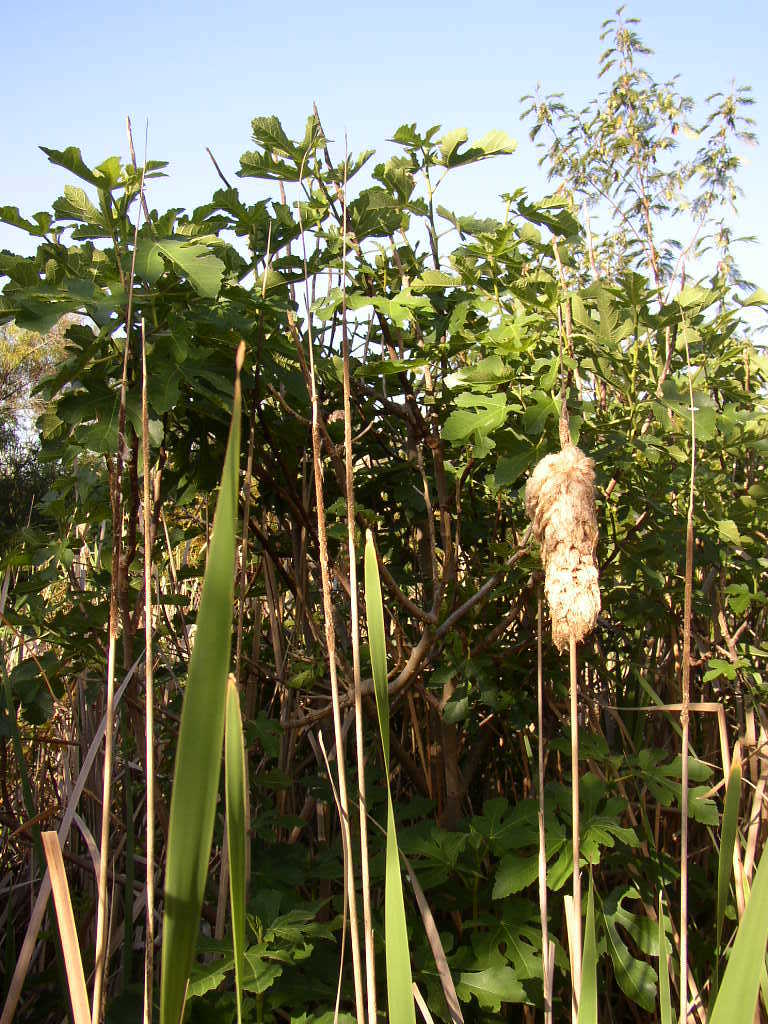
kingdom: Plantae
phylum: Tracheophyta
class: Magnoliopsida
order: Rosales
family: Moraceae
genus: Ficus
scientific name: Ficus carica
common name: Fig
